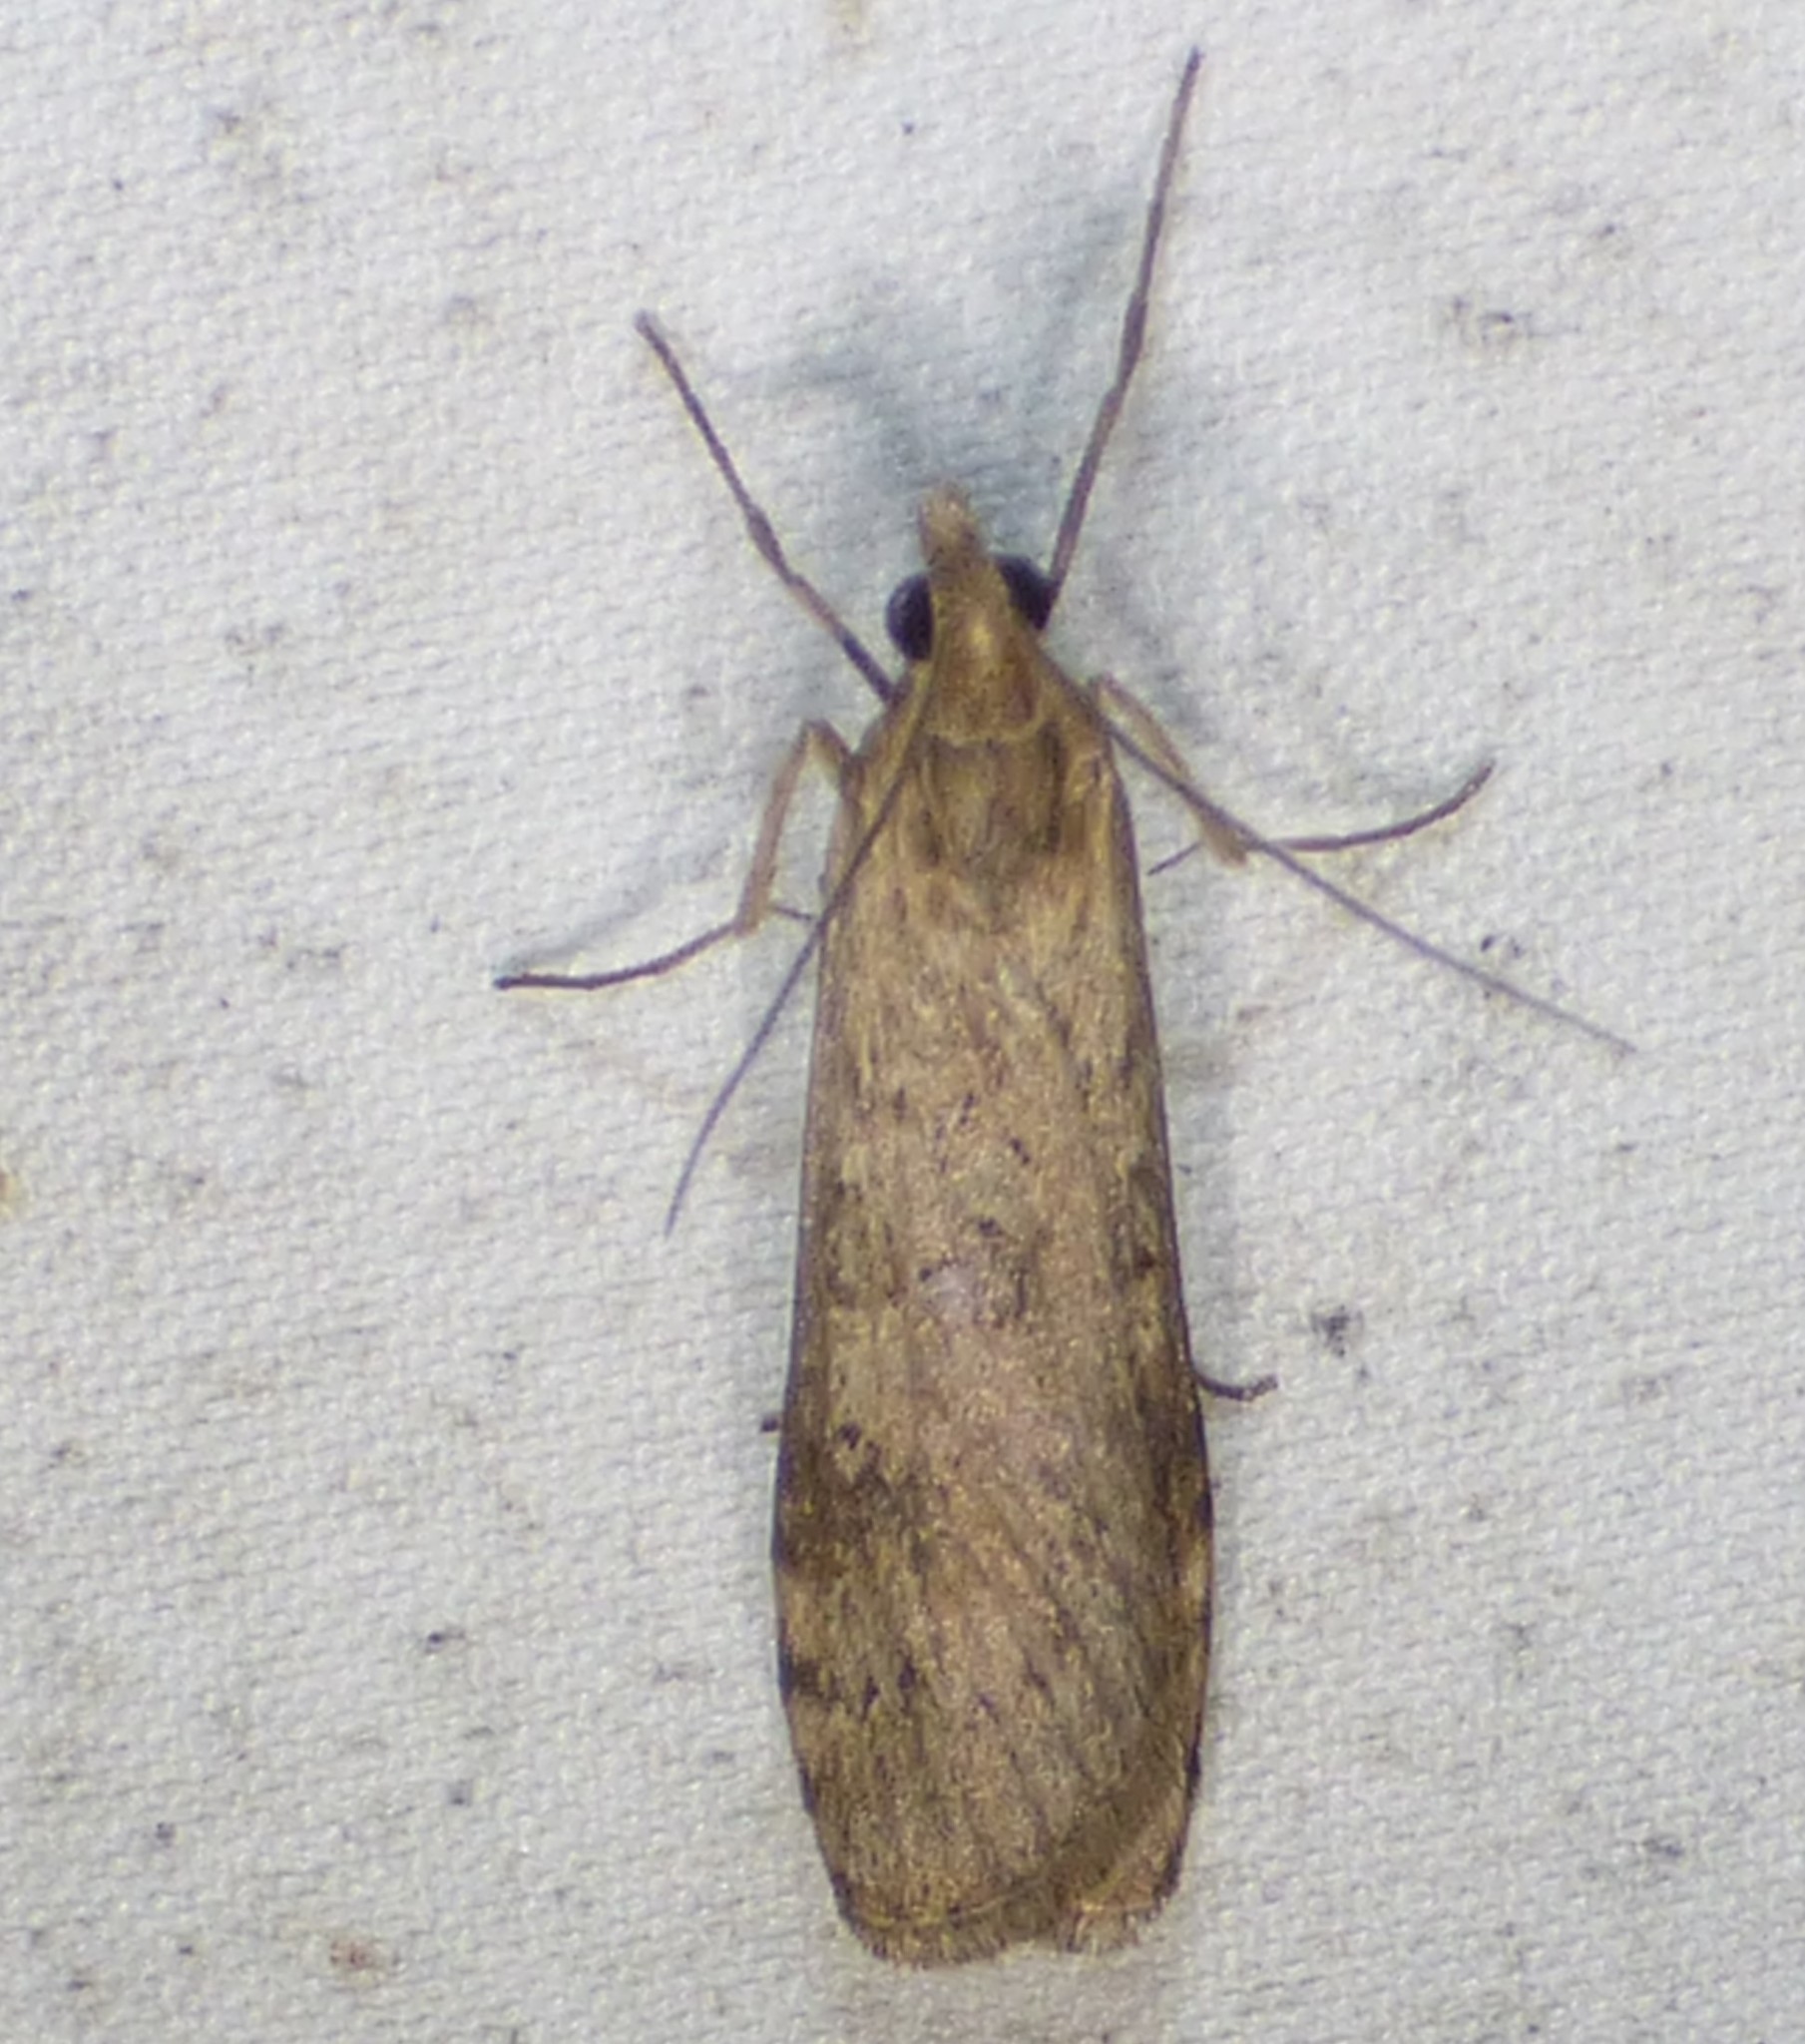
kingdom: Animalia
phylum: Arthropoda
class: Insecta
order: Lepidoptera
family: Crambidae
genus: Nomophila
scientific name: Nomophila nearctica
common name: American rush veneer
